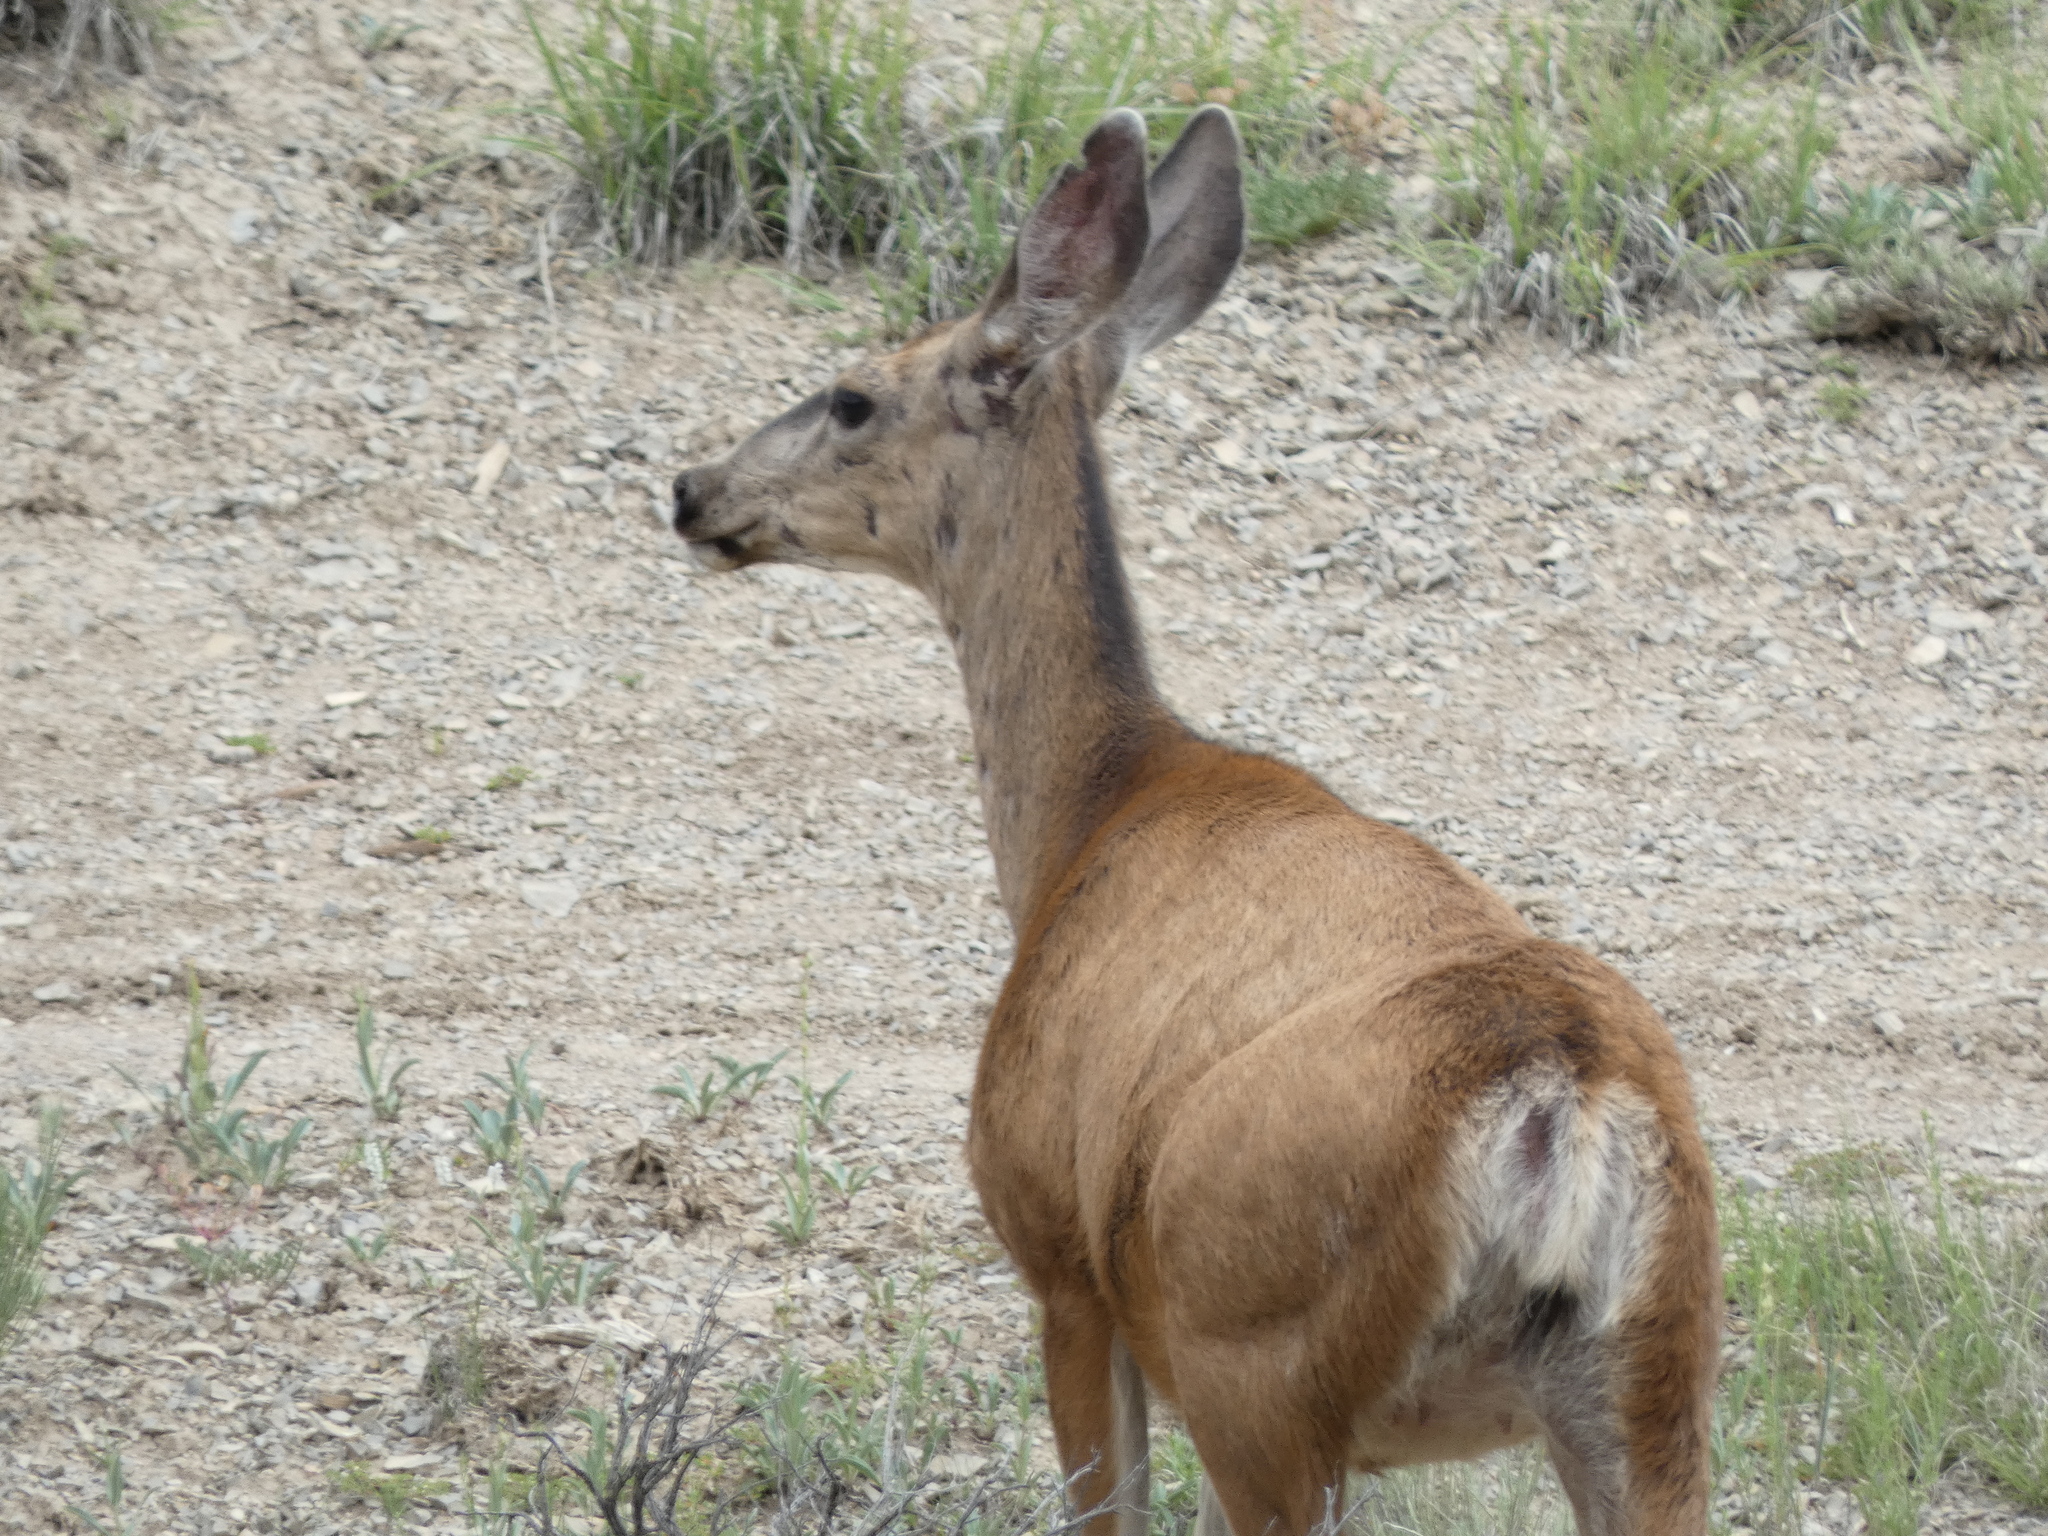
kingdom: Animalia
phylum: Chordata
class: Mammalia
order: Artiodactyla
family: Cervidae
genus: Odocoileus
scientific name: Odocoileus hemionus
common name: Mule deer
